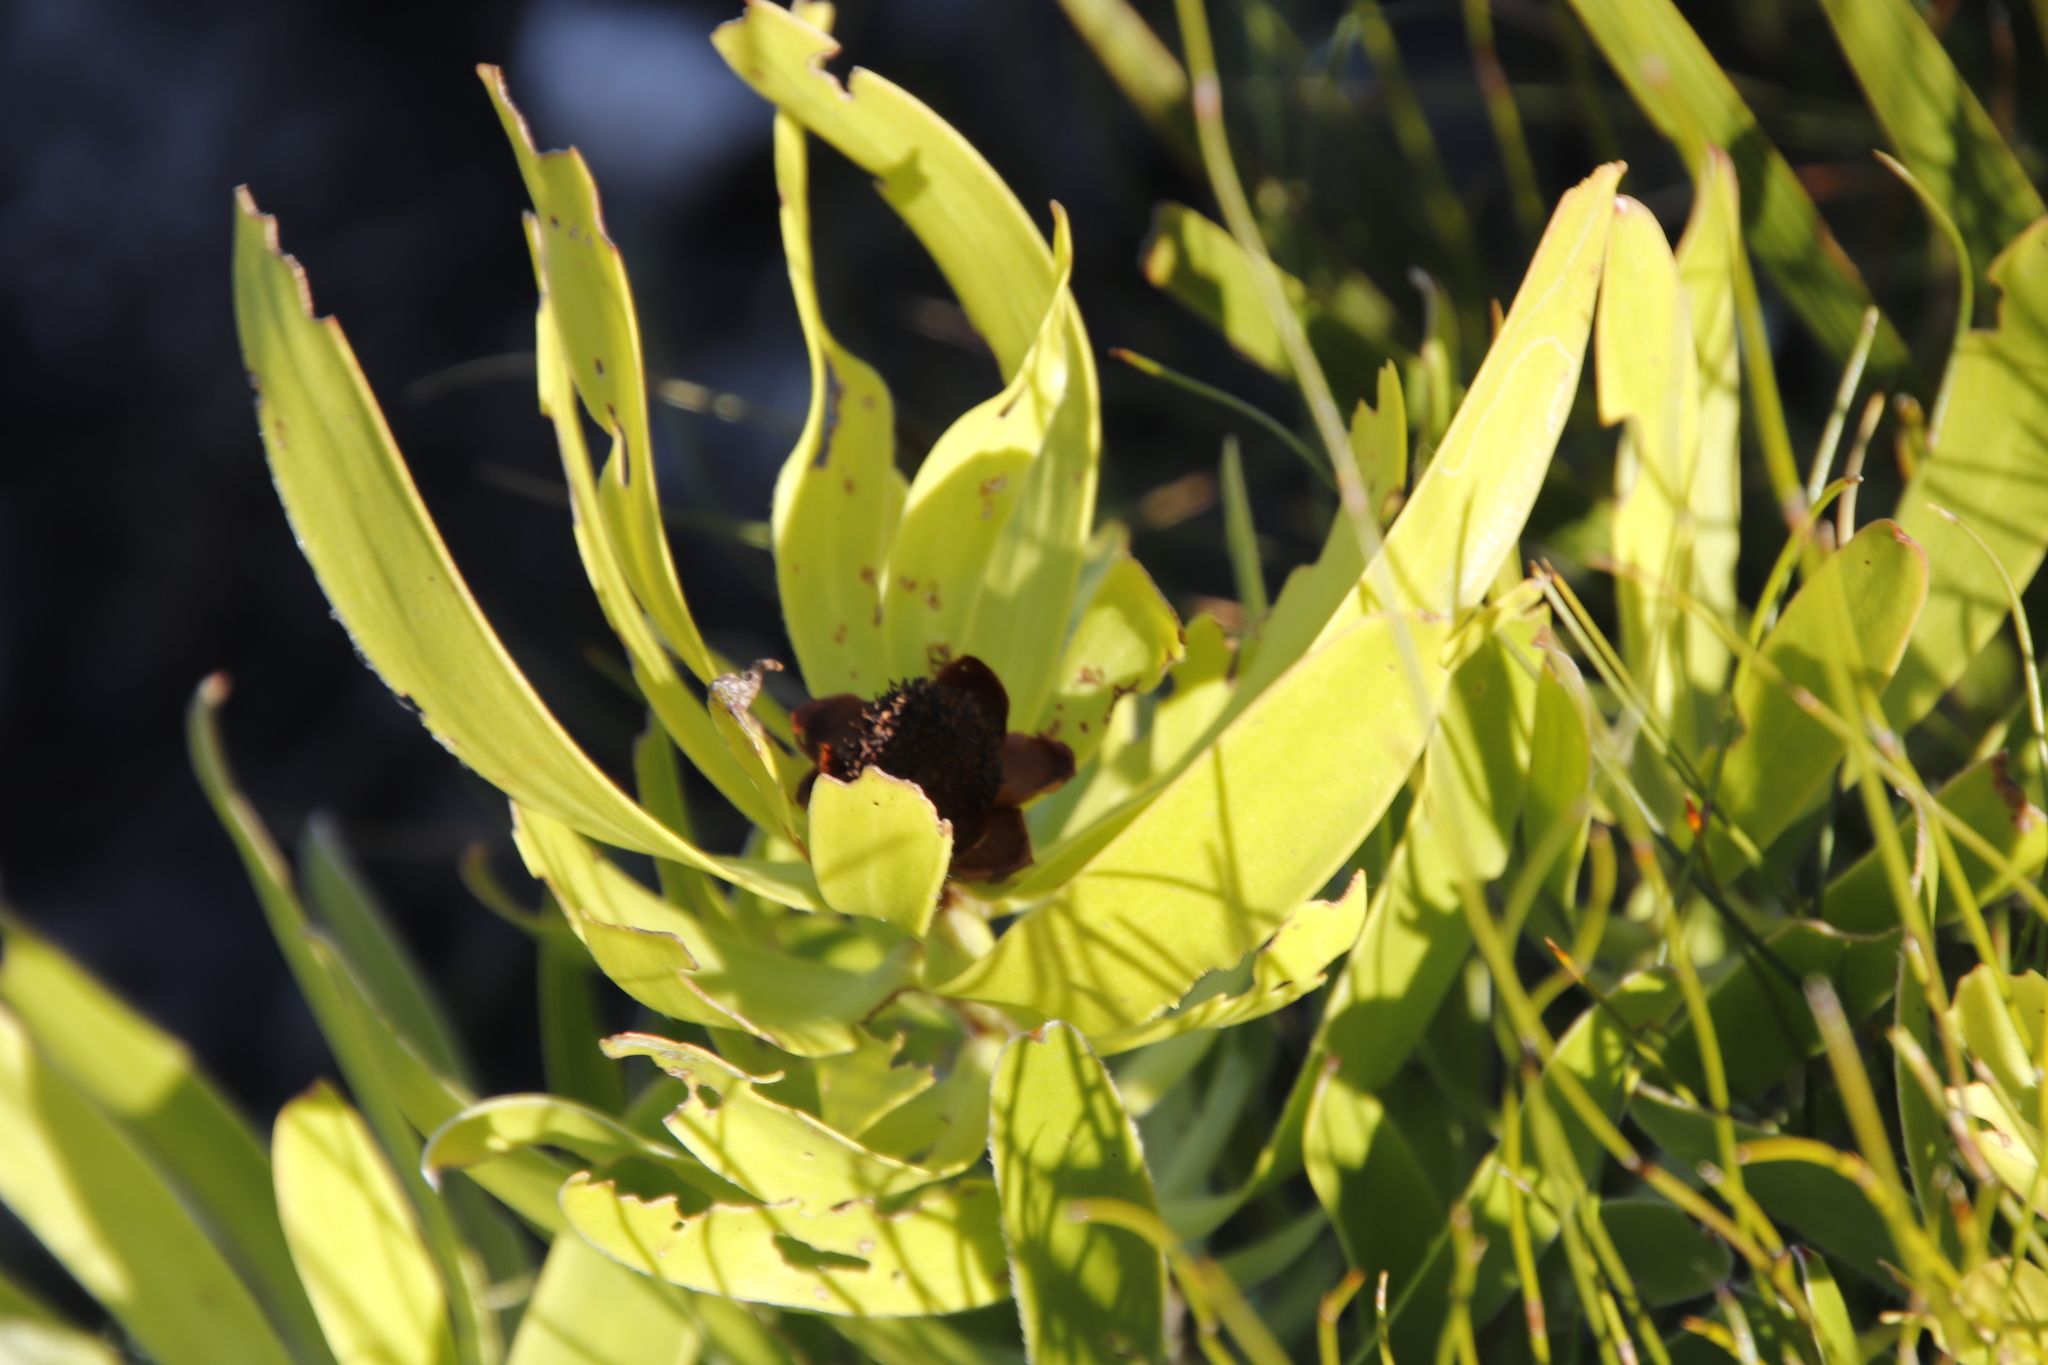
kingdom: Plantae
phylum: Tracheophyta
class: Magnoliopsida
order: Proteales
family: Proteaceae
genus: Leucadendron
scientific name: Leucadendron microcephalum
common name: Oilbract conebush
